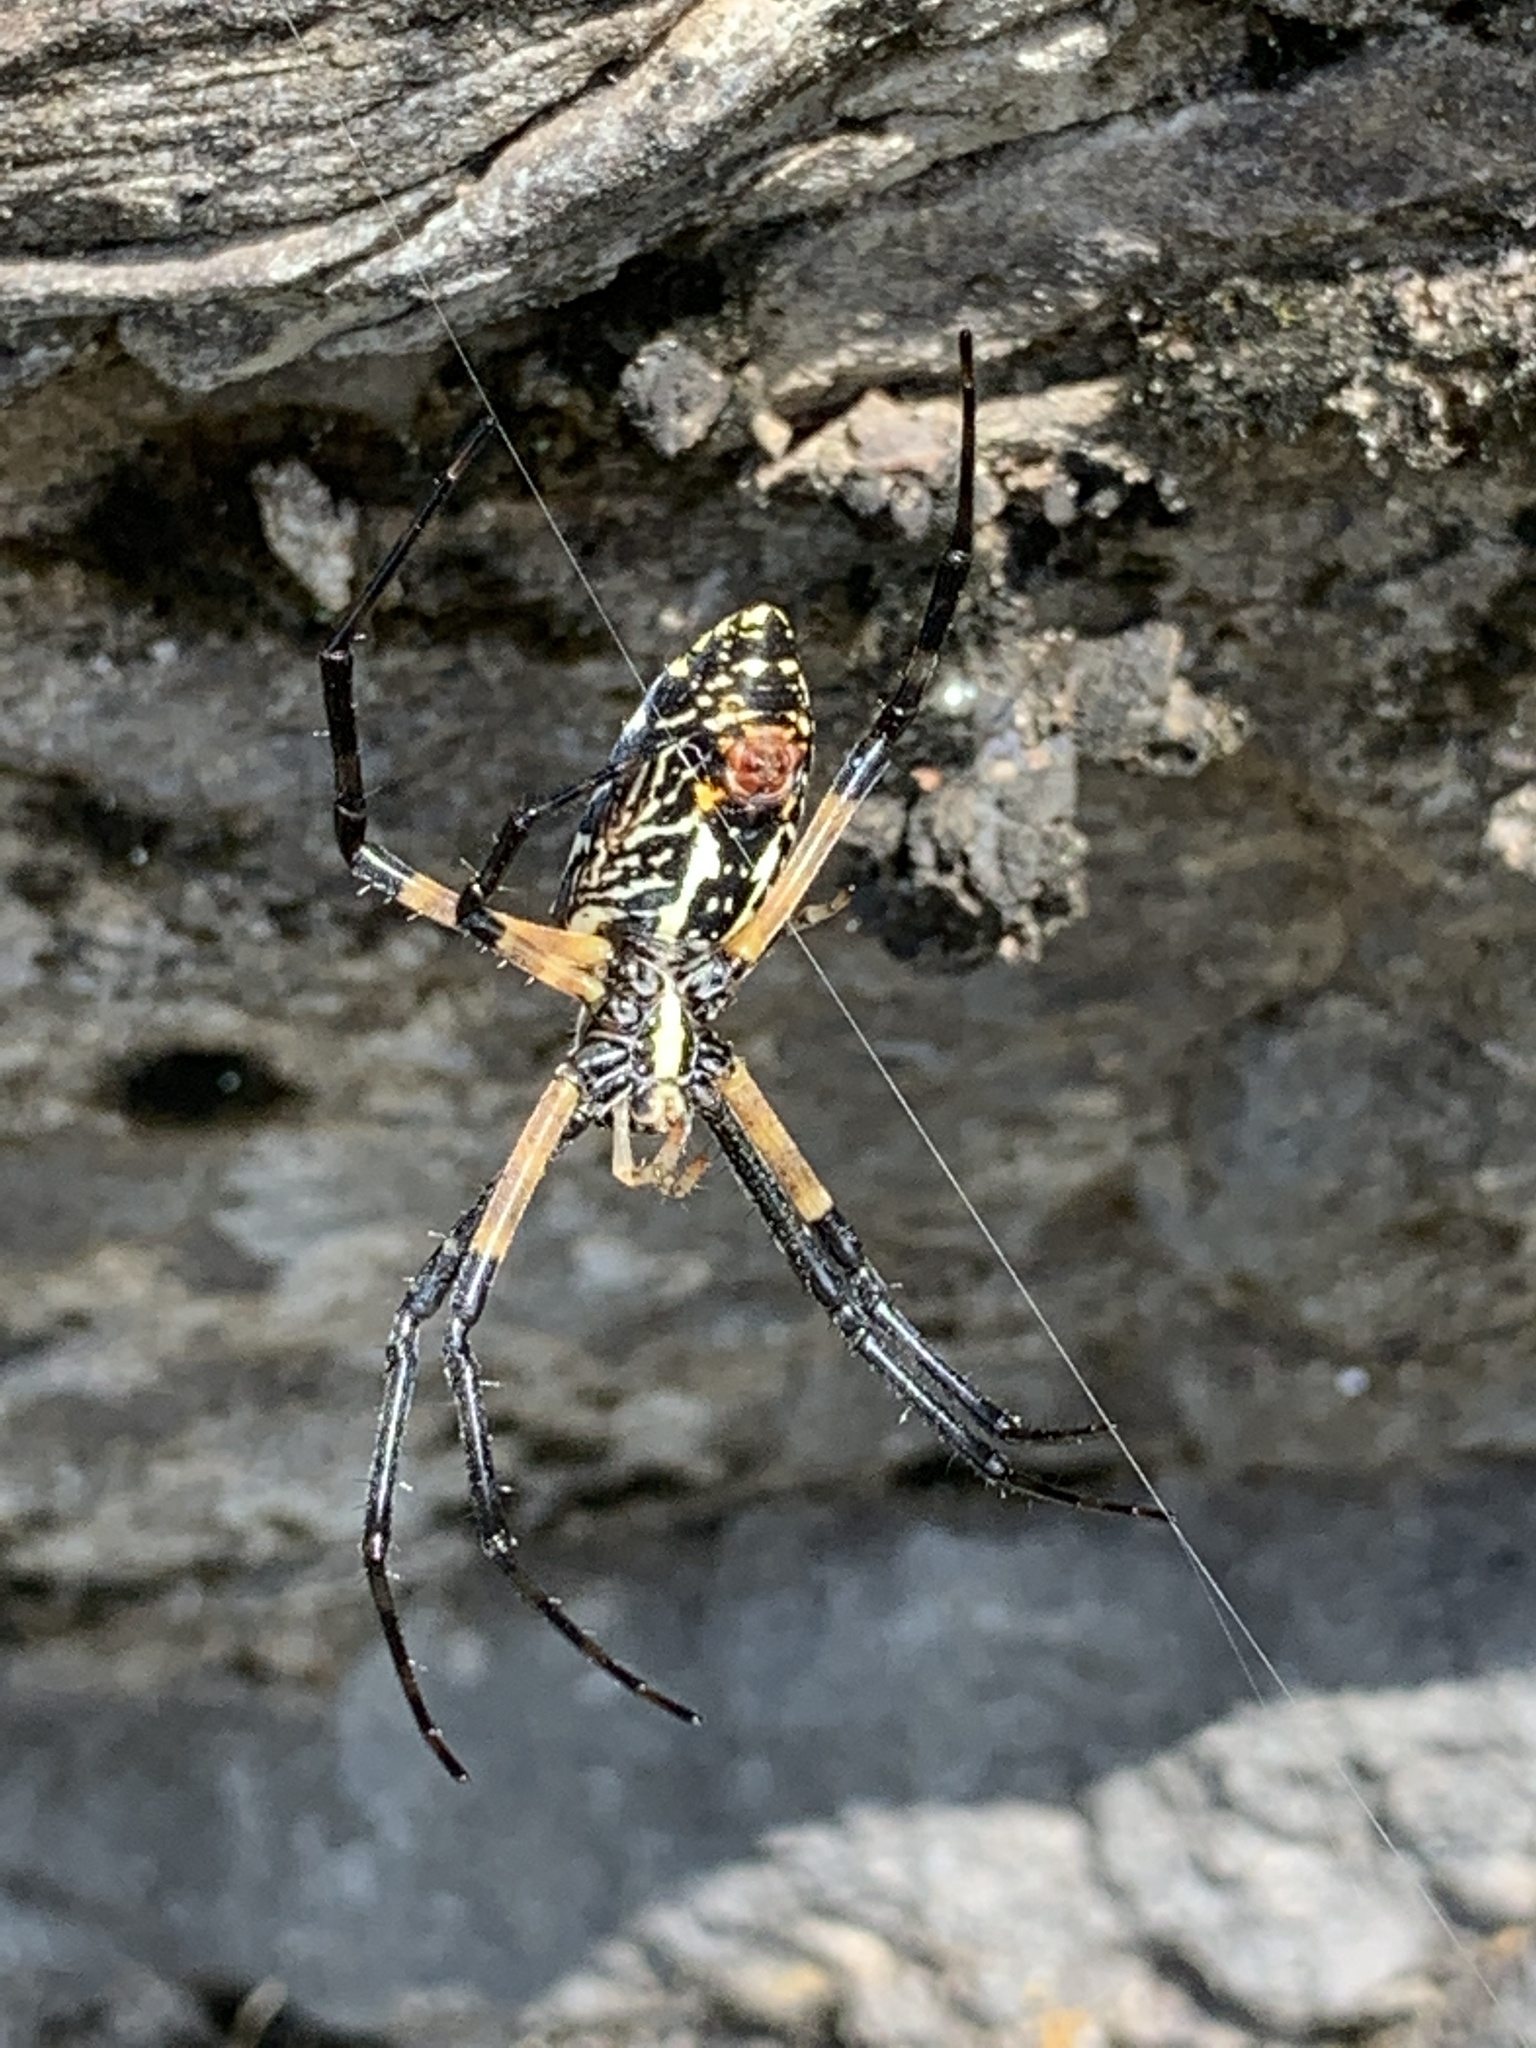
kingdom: Animalia
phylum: Arthropoda
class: Arachnida
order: Araneae
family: Araneidae
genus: Argiope
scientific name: Argiope aurantia
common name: Orb weavers
